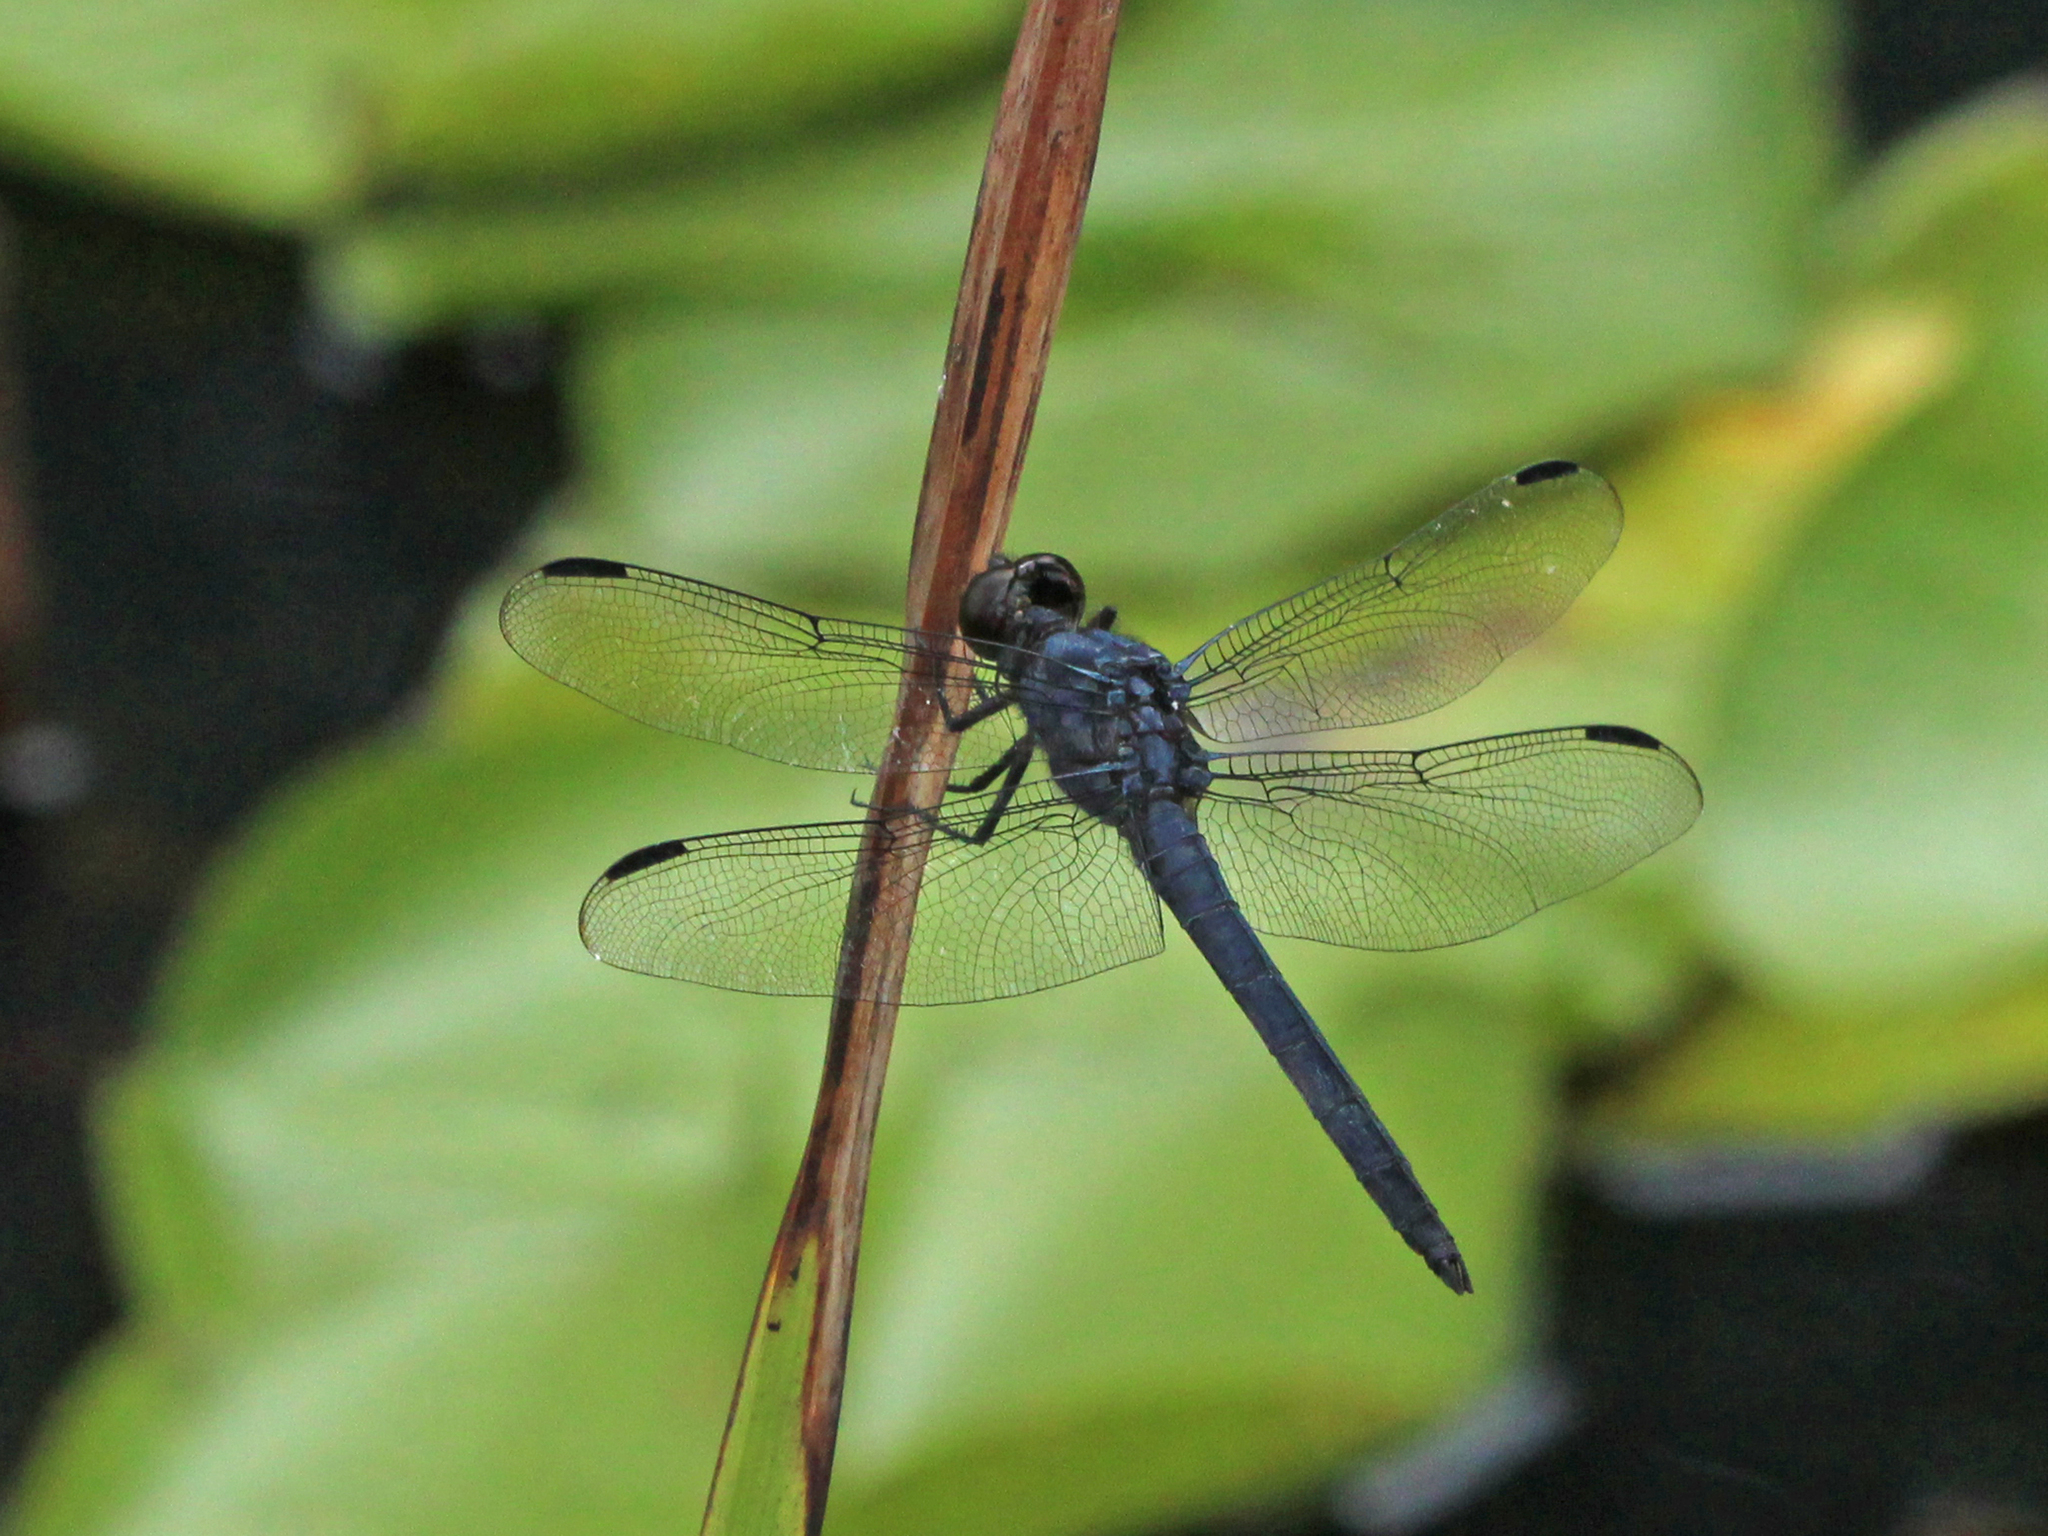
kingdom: Animalia
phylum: Arthropoda
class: Insecta
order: Odonata
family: Libellulidae
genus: Libellula
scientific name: Libellula incesta
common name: Slaty skimmer
